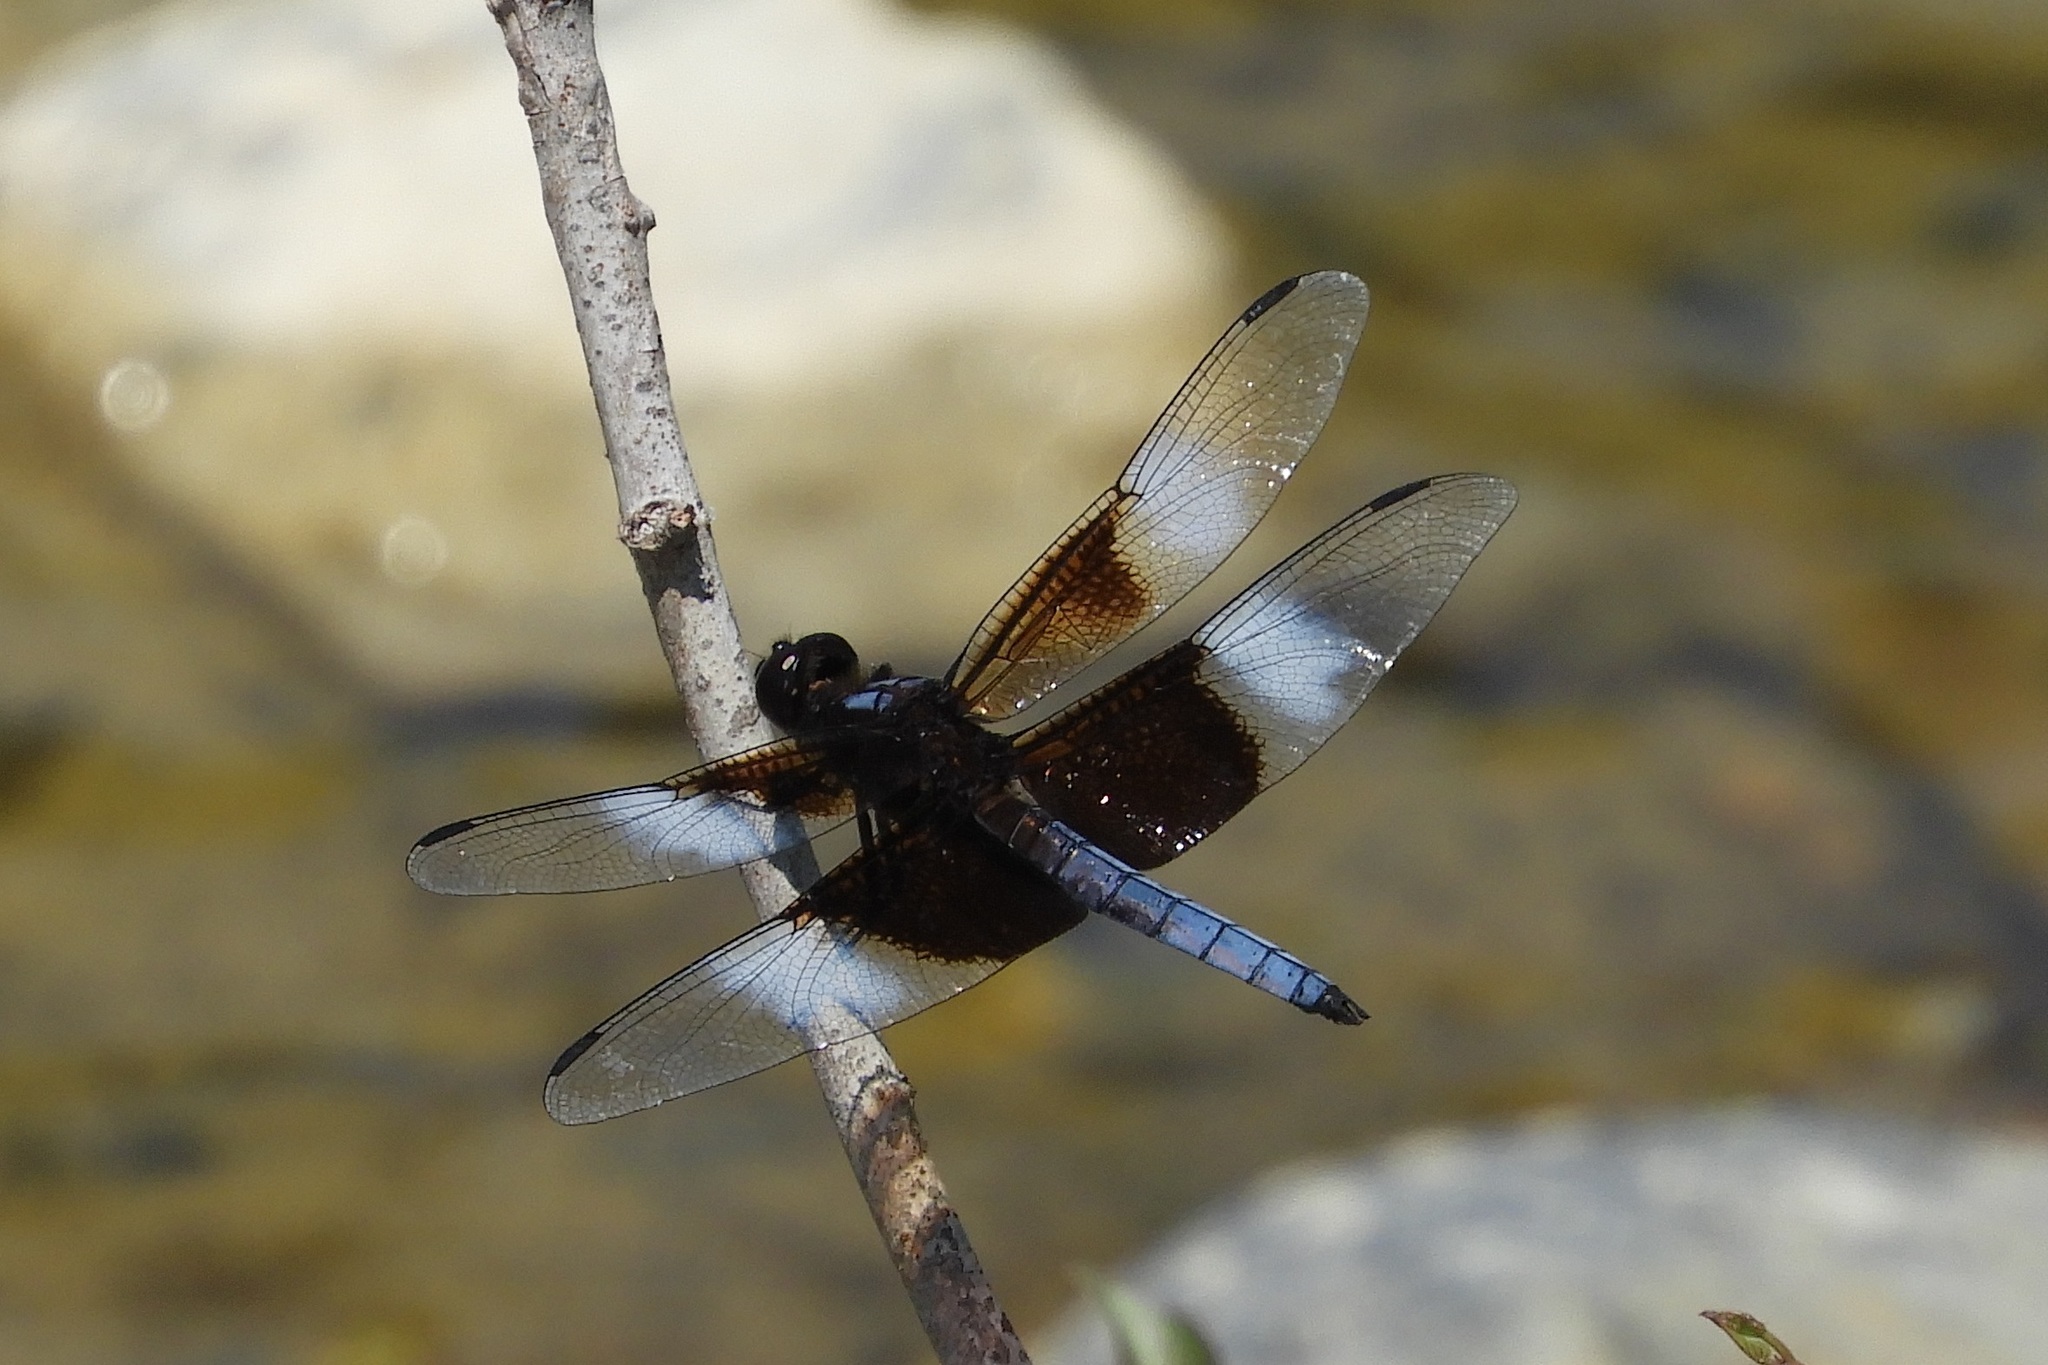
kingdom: Animalia
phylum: Arthropoda
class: Insecta
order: Odonata
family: Libellulidae
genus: Libellula
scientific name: Libellula luctuosa
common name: Widow skimmer
